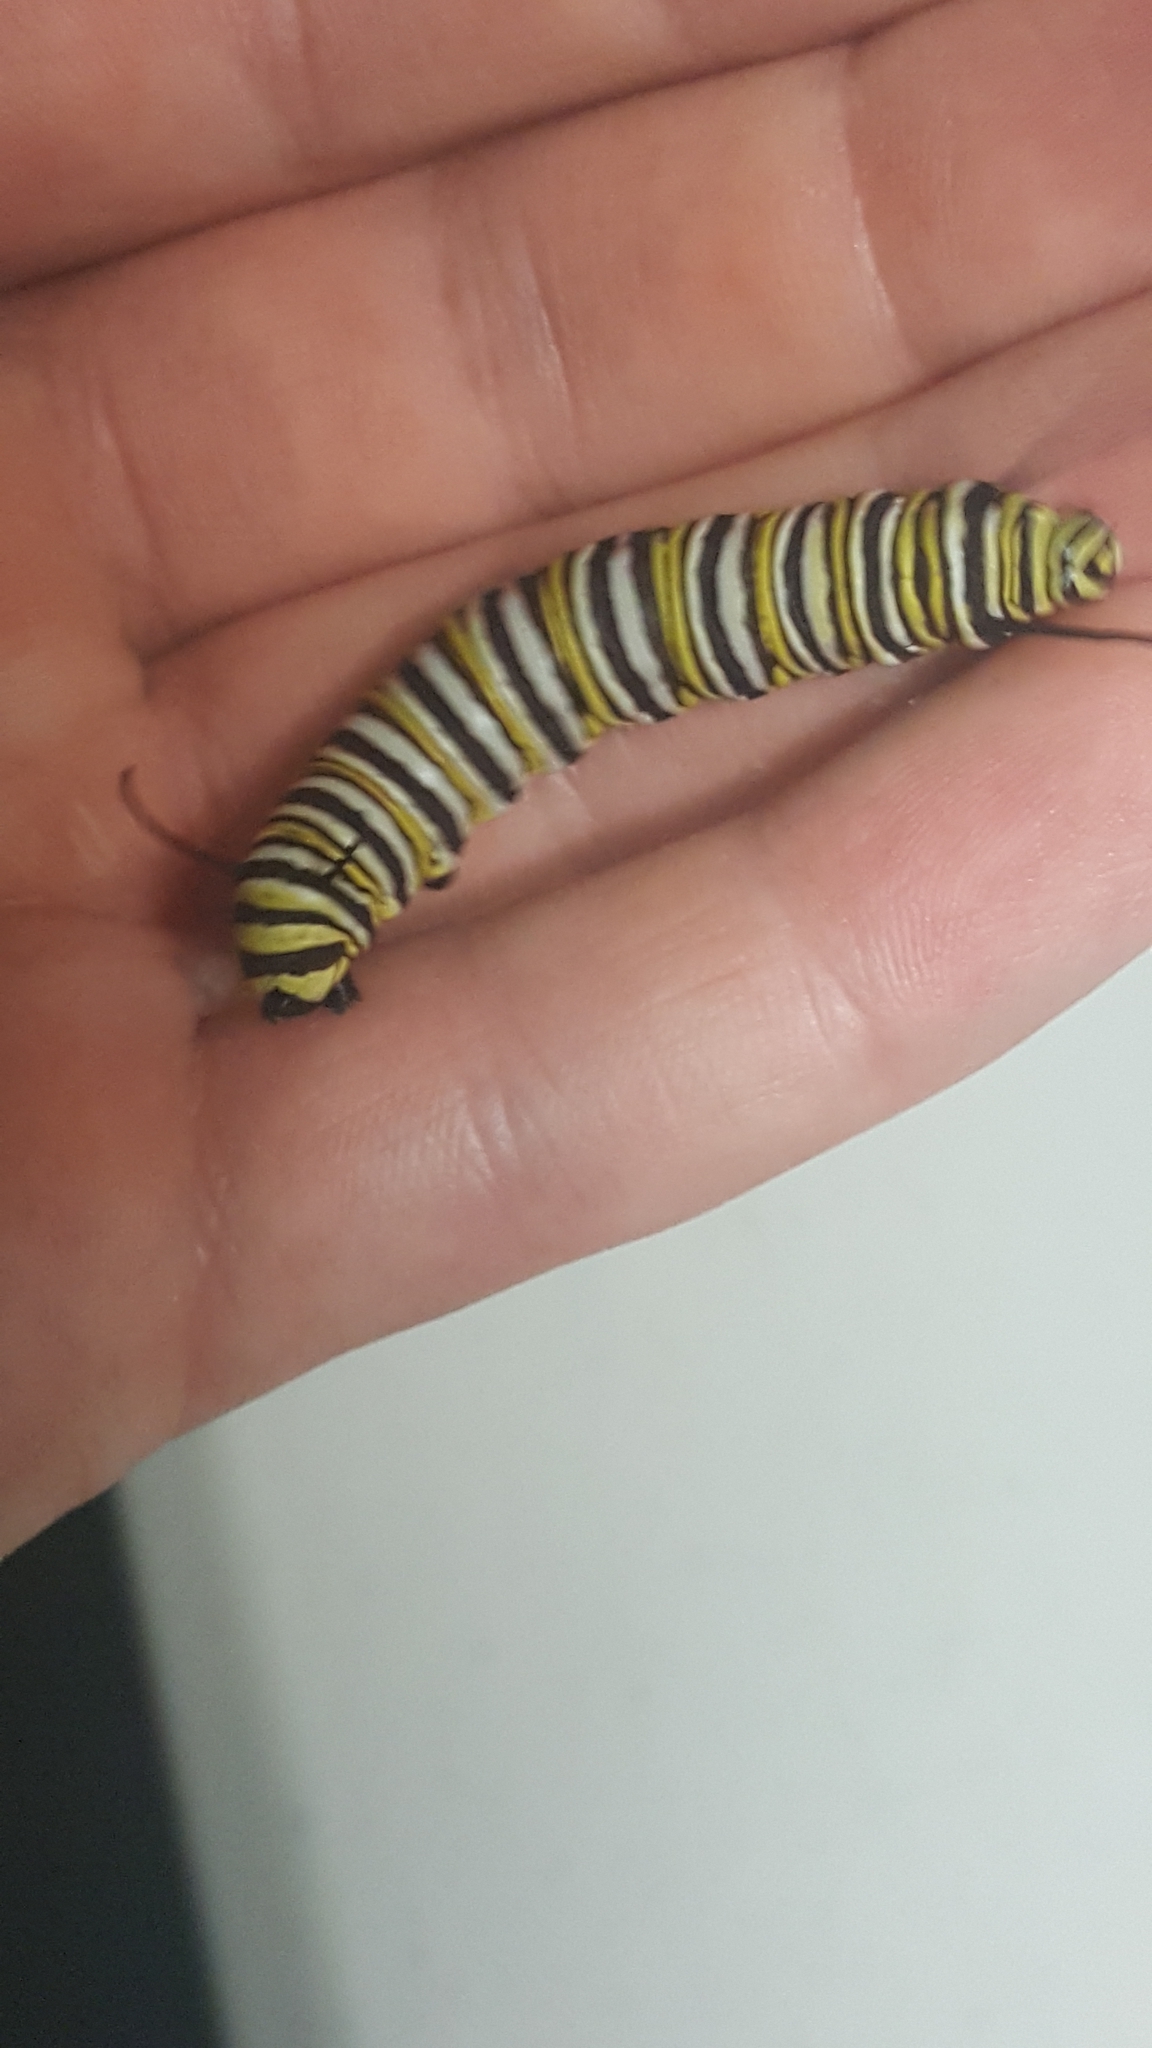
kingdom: Animalia
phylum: Arthropoda
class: Insecta
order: Lepidoptera
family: Nymphalidae
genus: Danaus
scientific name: Danaus plexippus
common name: Monarch
